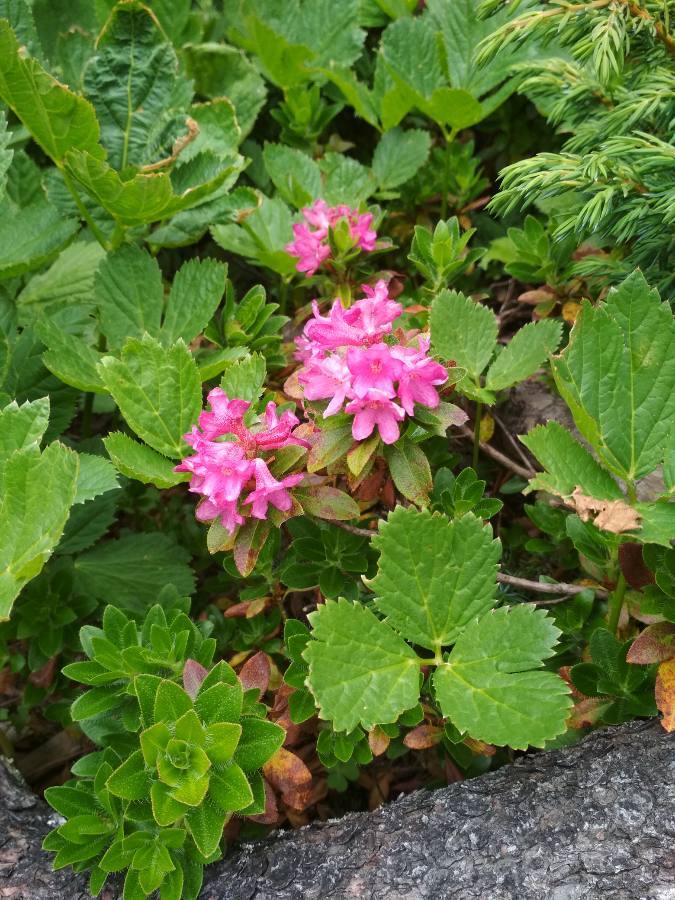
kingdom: Plantae
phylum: Tracheophyta
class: Magnoliopsida
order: Ericales
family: Ericaceae
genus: Rhododendron
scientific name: Rhododendron hirsutum
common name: Hairy alpenrose
